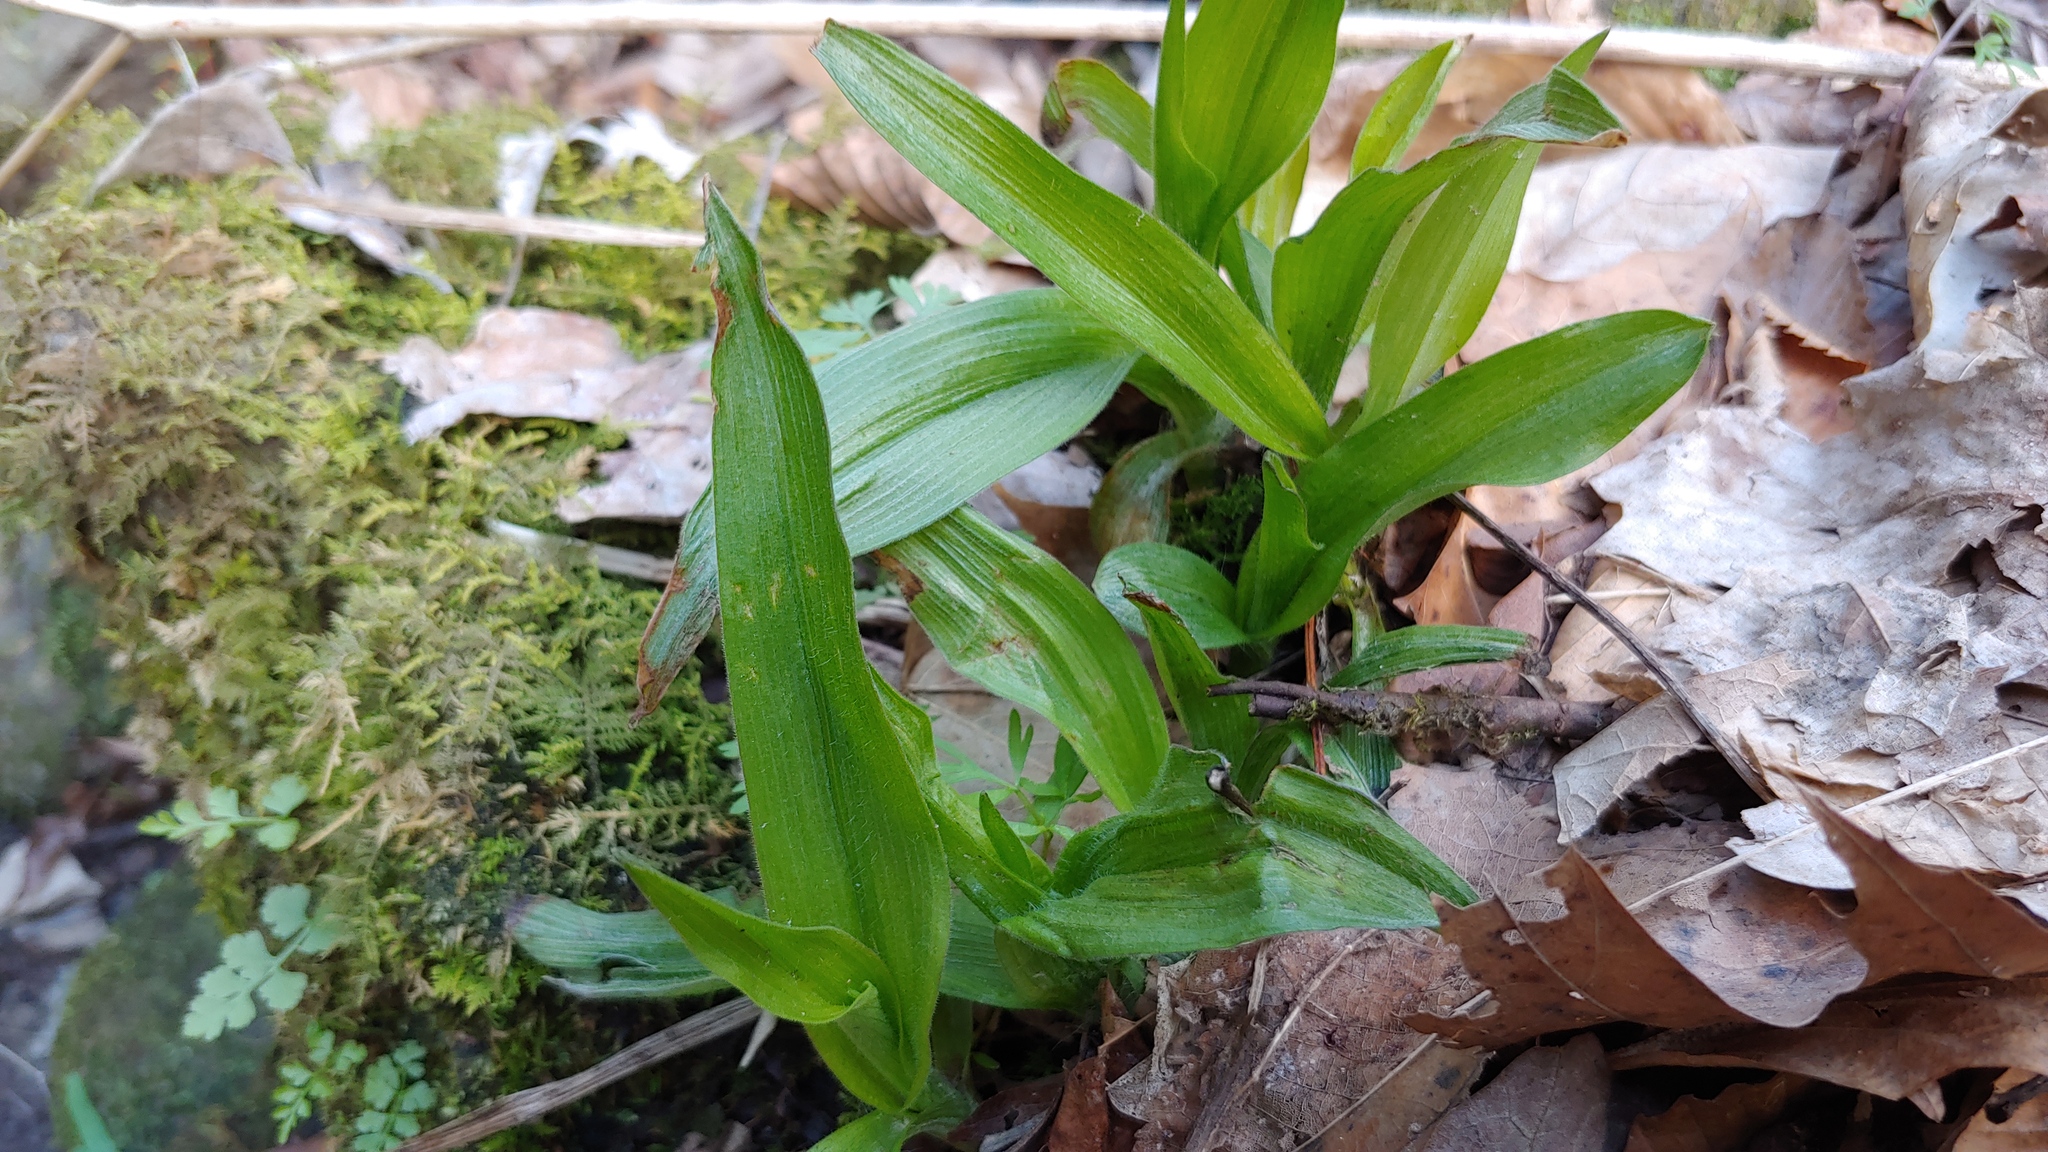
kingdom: Plantae
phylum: Tracheophyta
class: Liliopsida
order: Commelinales
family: Commelinaceae
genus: Tradescantia
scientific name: Tradescantia subaspera
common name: Wide-leaf spiderwort
